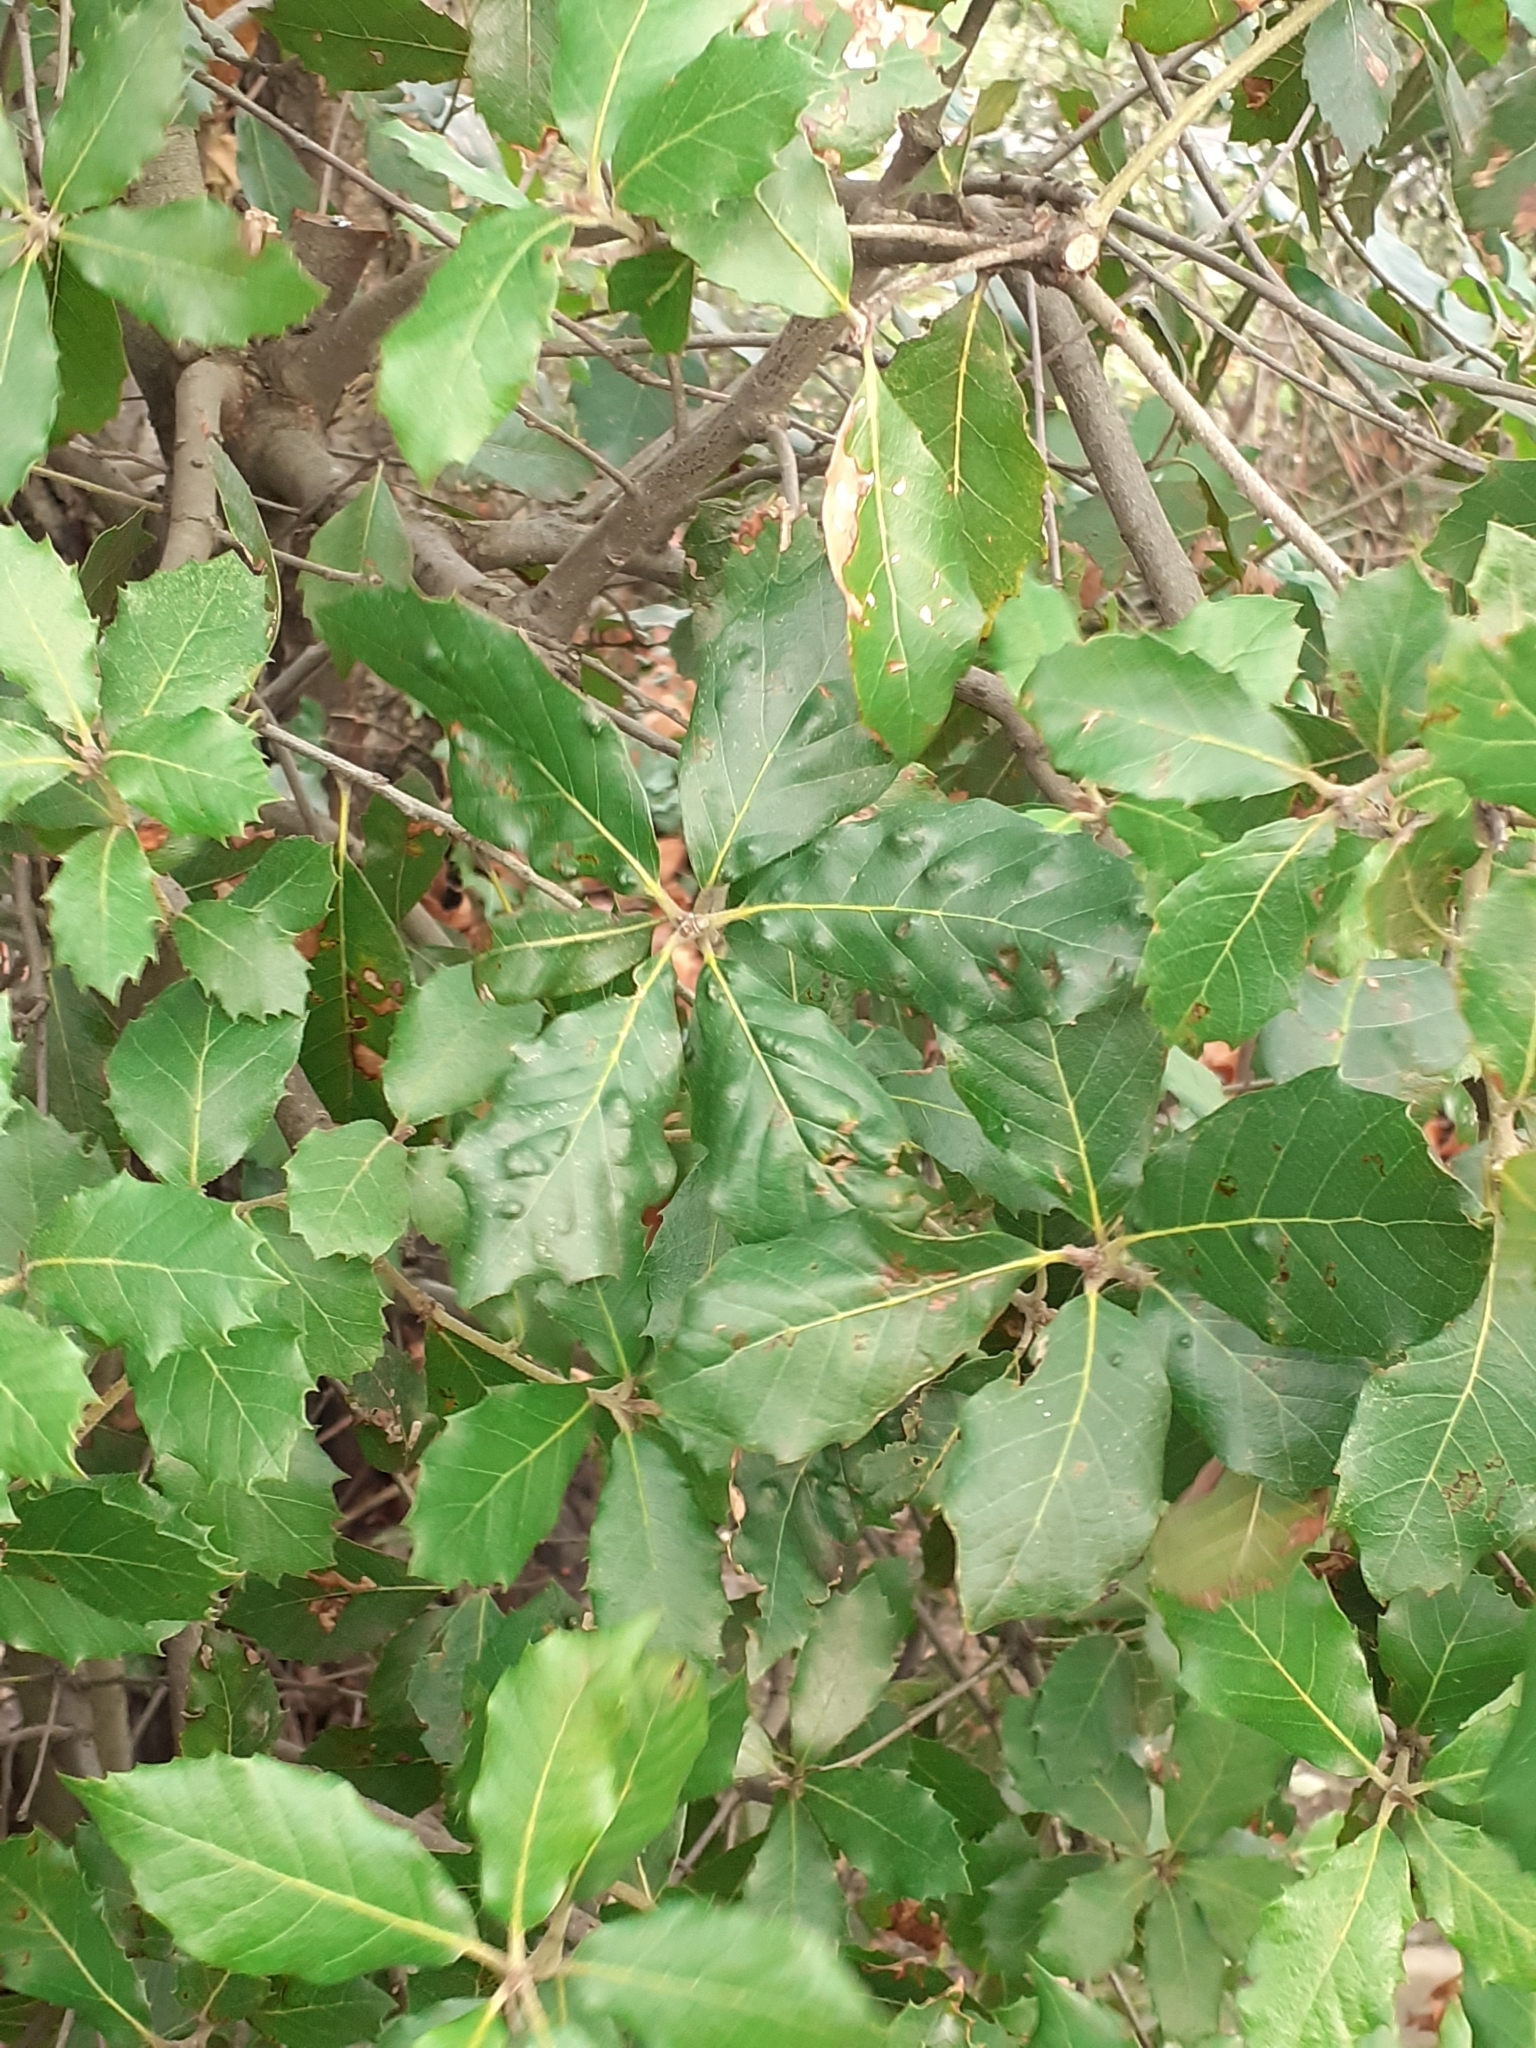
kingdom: Animalia
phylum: Arthropoda
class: Arachnida
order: Trombidiformes
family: Eriophyidae
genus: Aceria
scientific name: Aceria ilicis
